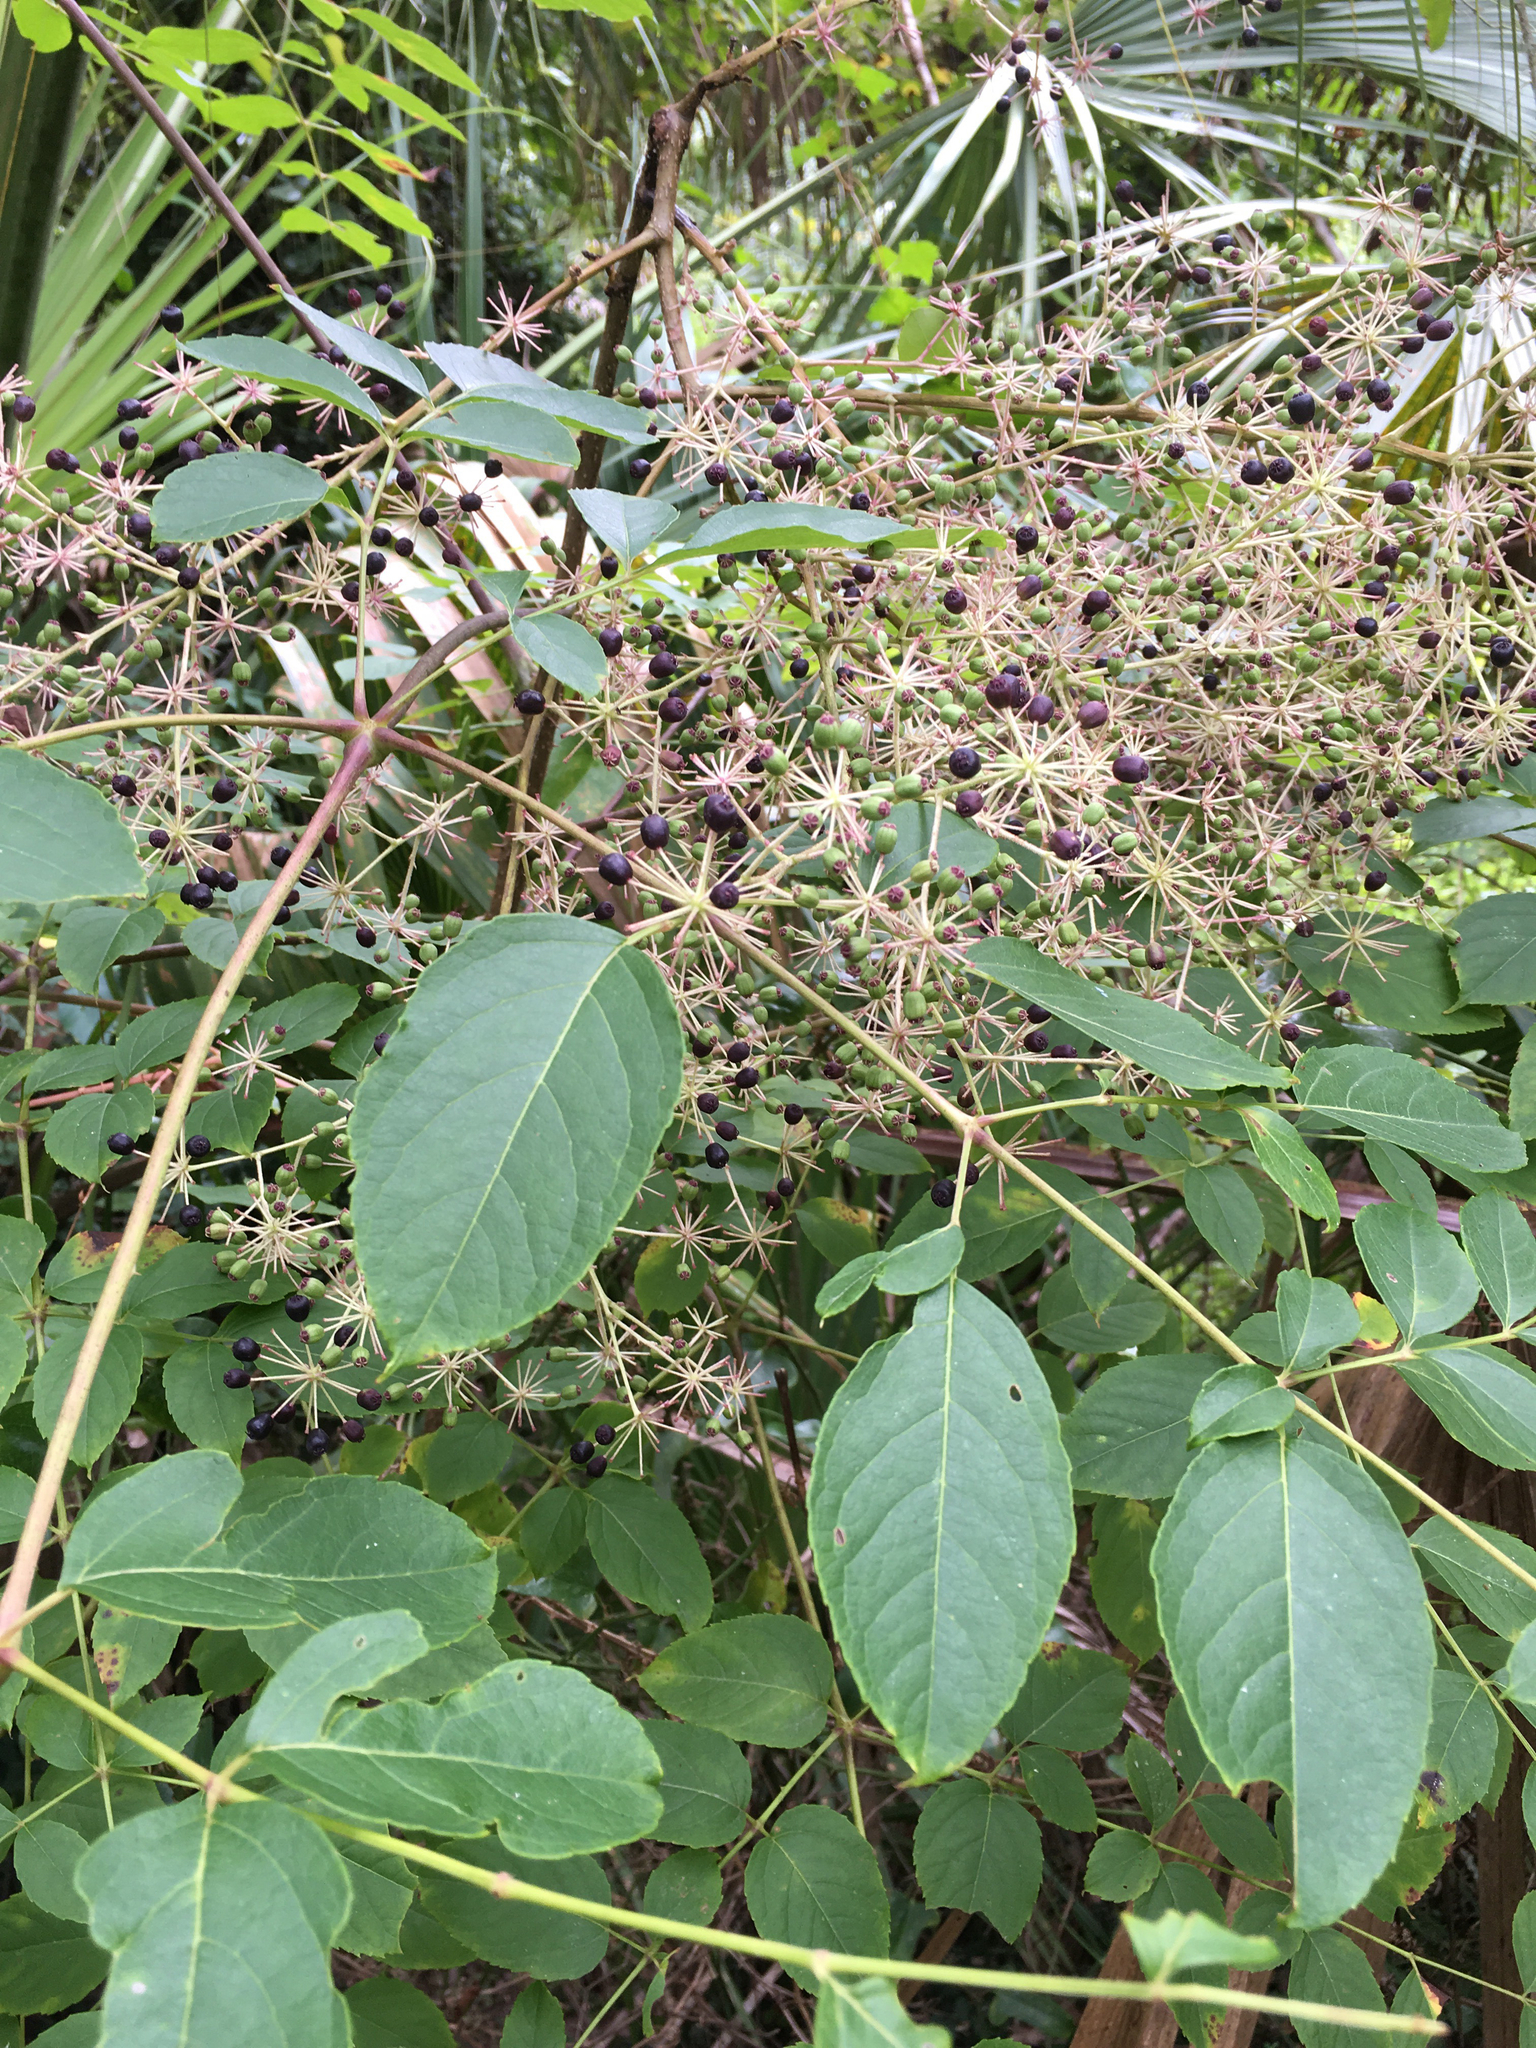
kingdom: Plantae
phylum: Tracheophyta
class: Magnoliopsida
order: Apiales
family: Araliaceae
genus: Aralia
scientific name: Aralia spinosa
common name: Hercules'-club
